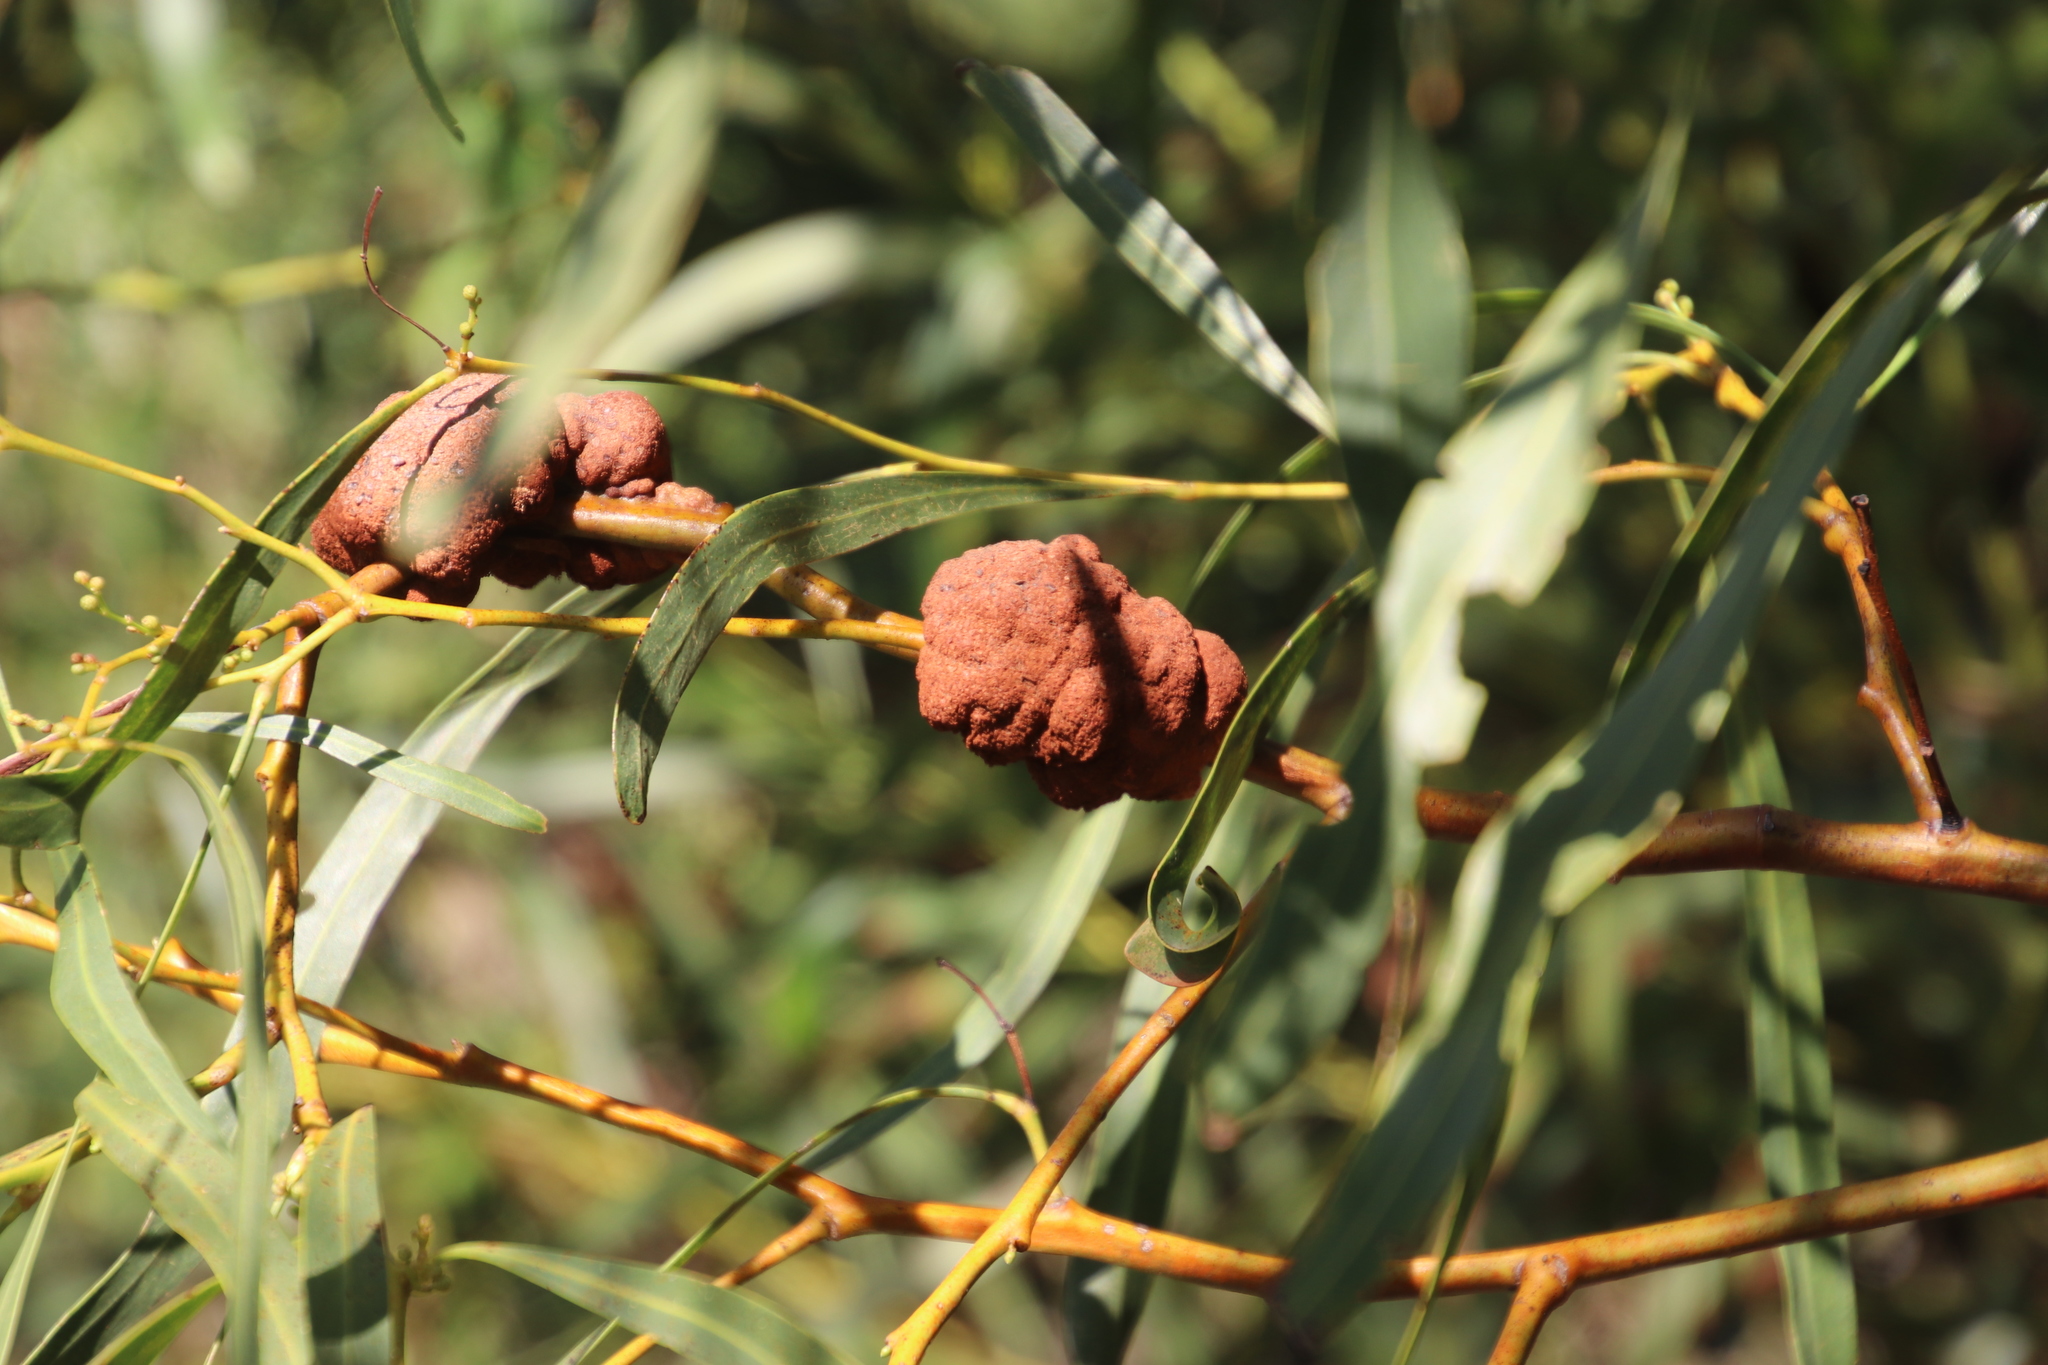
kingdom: Fungi
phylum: Basidiomycota
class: Pucciniomycetes
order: Pucciniales
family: Uromycladiaceae
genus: Uromycladium
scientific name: Uromycladium morrisii
